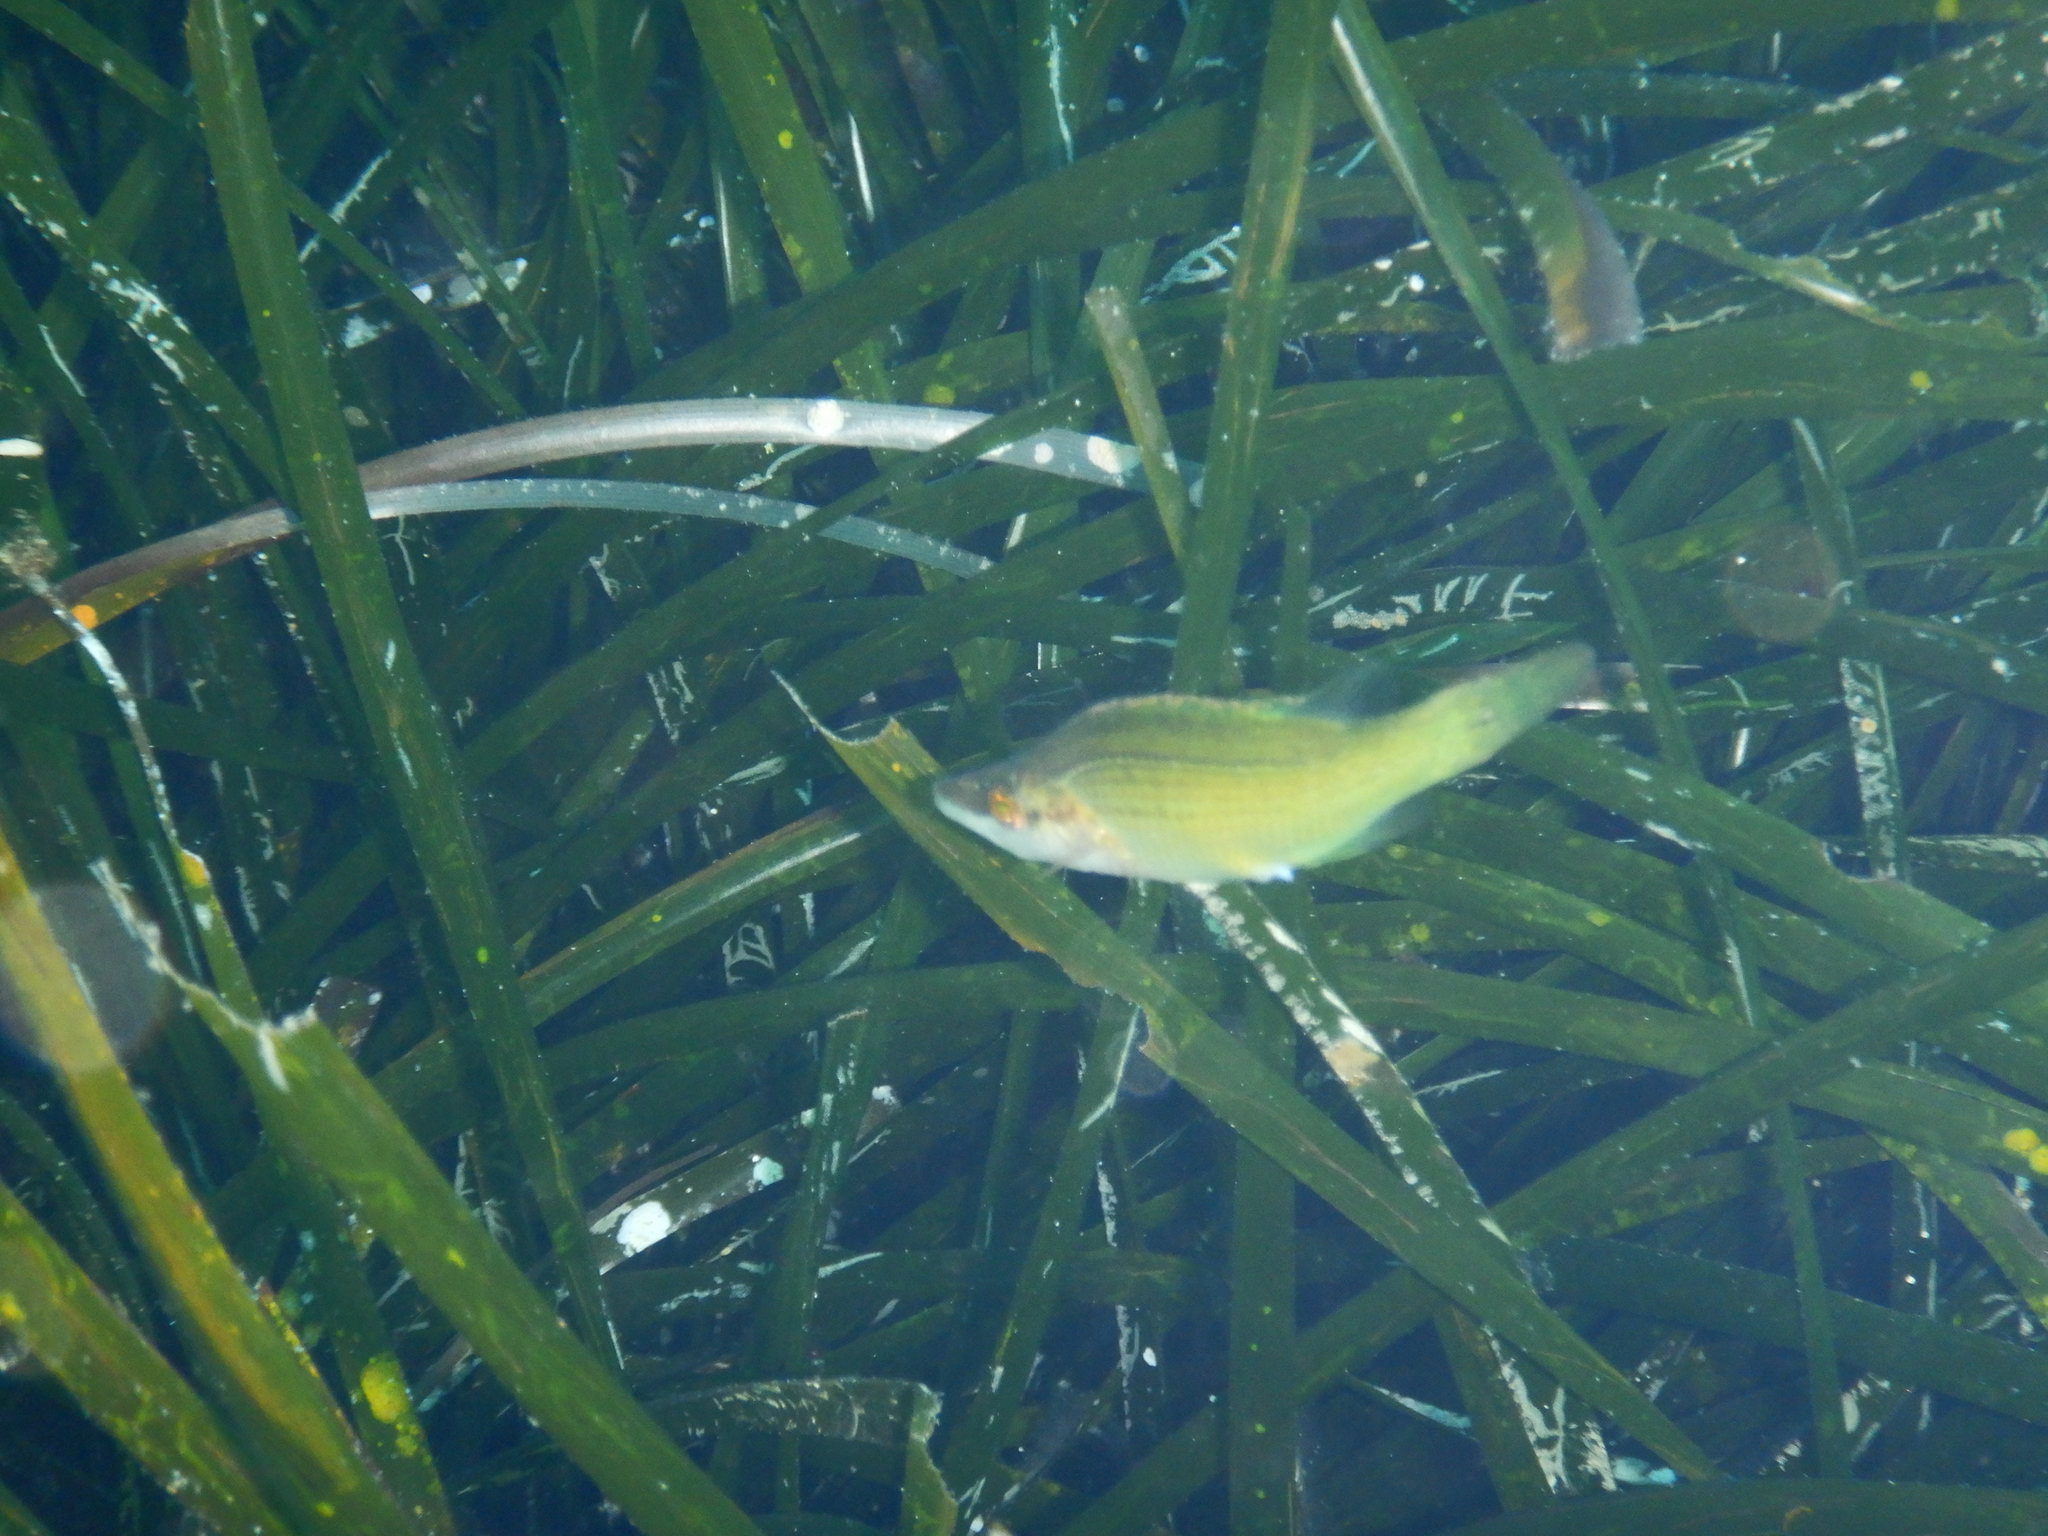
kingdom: Animalia
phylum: Chordata
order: Perciformes
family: Labridae
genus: Symphodus
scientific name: Symphodus rostratus
